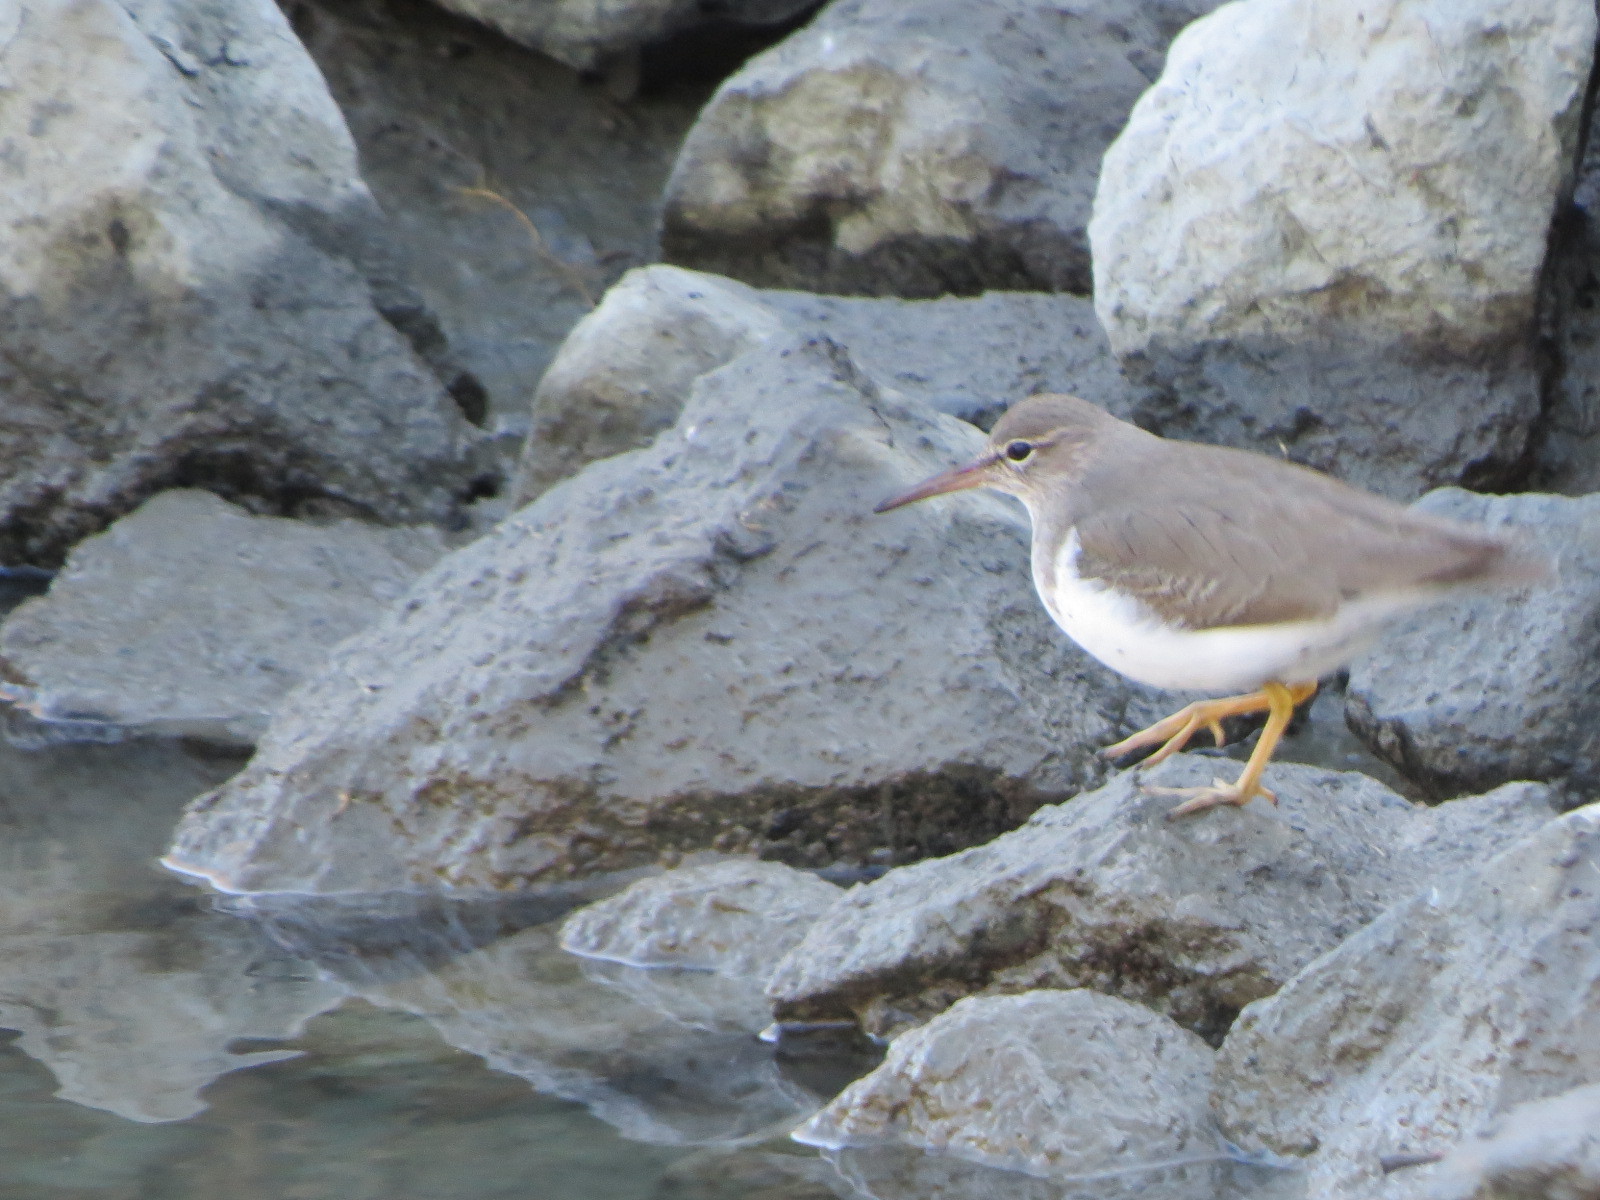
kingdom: Animalia
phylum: Chordata
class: Aves
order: Charadriiformes
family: Scolopacidae
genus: Actitis
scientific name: Actitis macularius
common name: Spotted sandpiper
